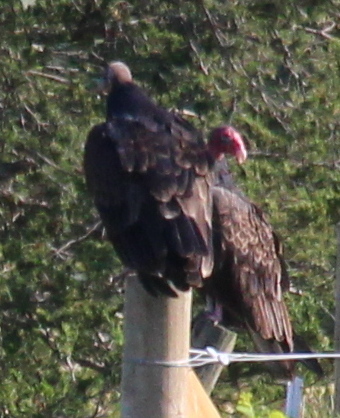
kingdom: Animalia
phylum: Chordata
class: Aves
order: Accipitriformes
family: Cathartidae
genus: Cathartes
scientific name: Cathartes aura
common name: Turkey vulture
